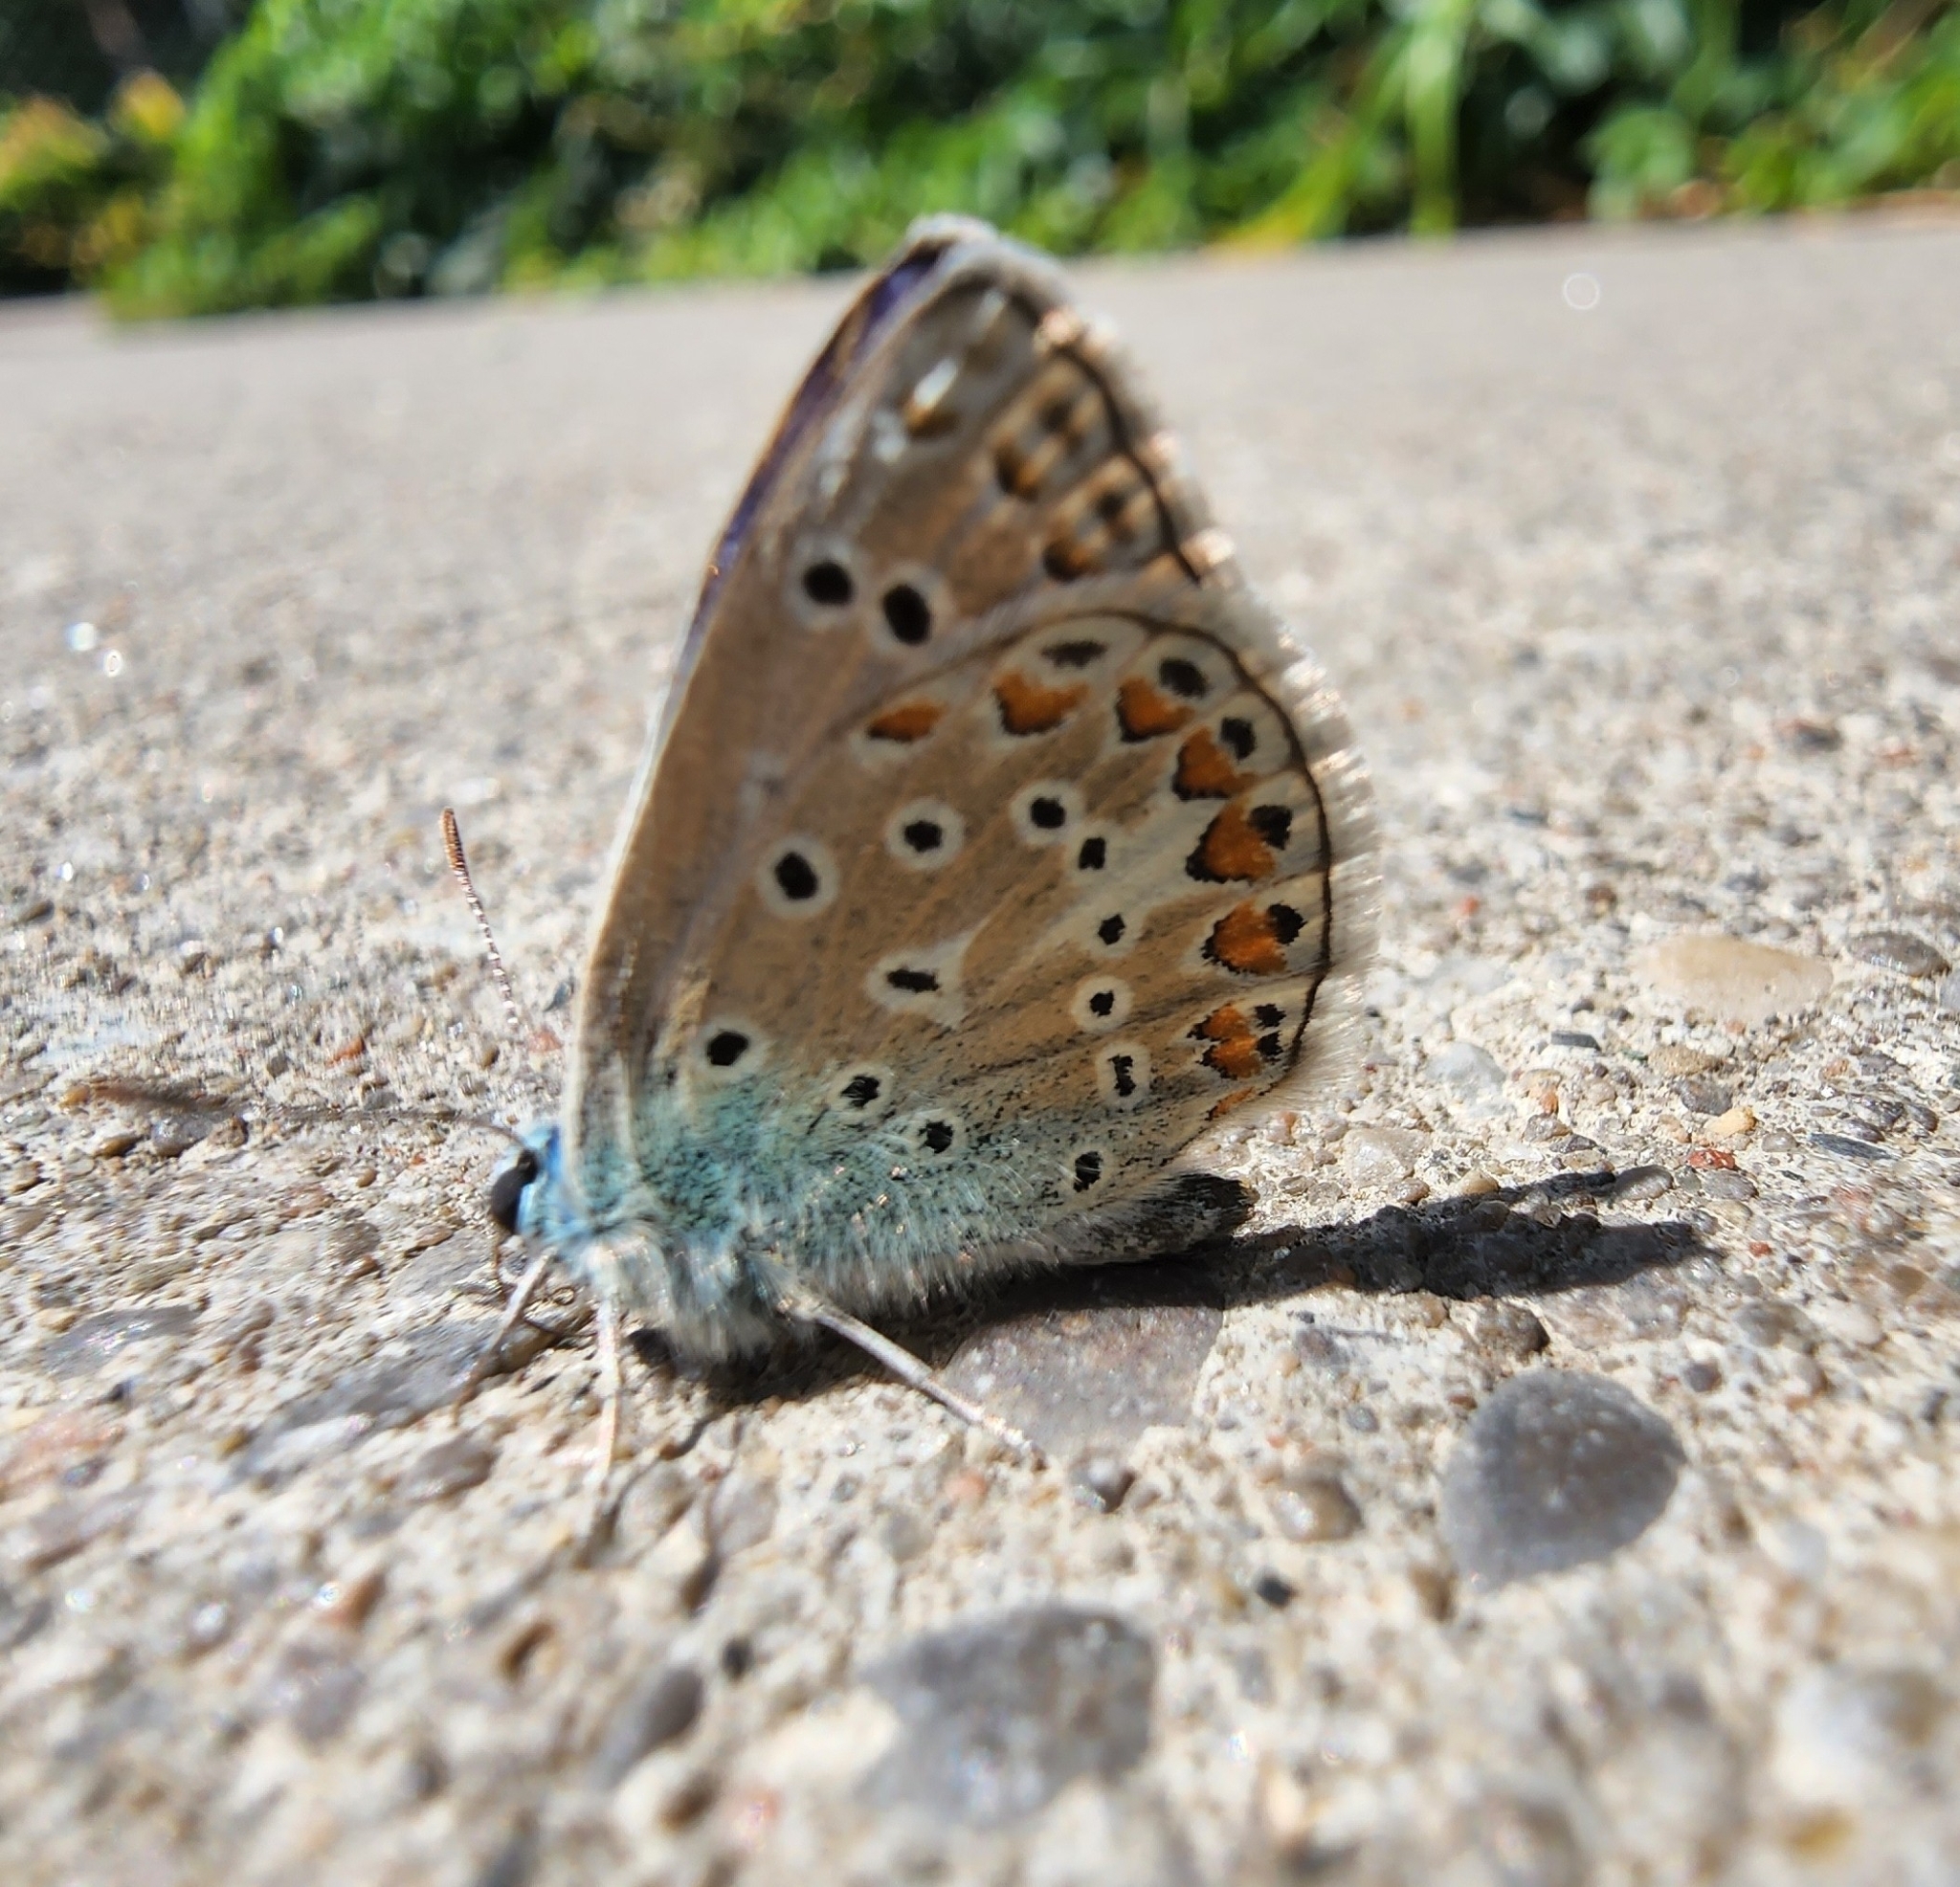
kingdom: Animalia
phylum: Arthropoda
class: Insecta
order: Lepidoptera
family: Lycaenidae
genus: Polyommatus
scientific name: Polyommatus icarus
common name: Common blue
